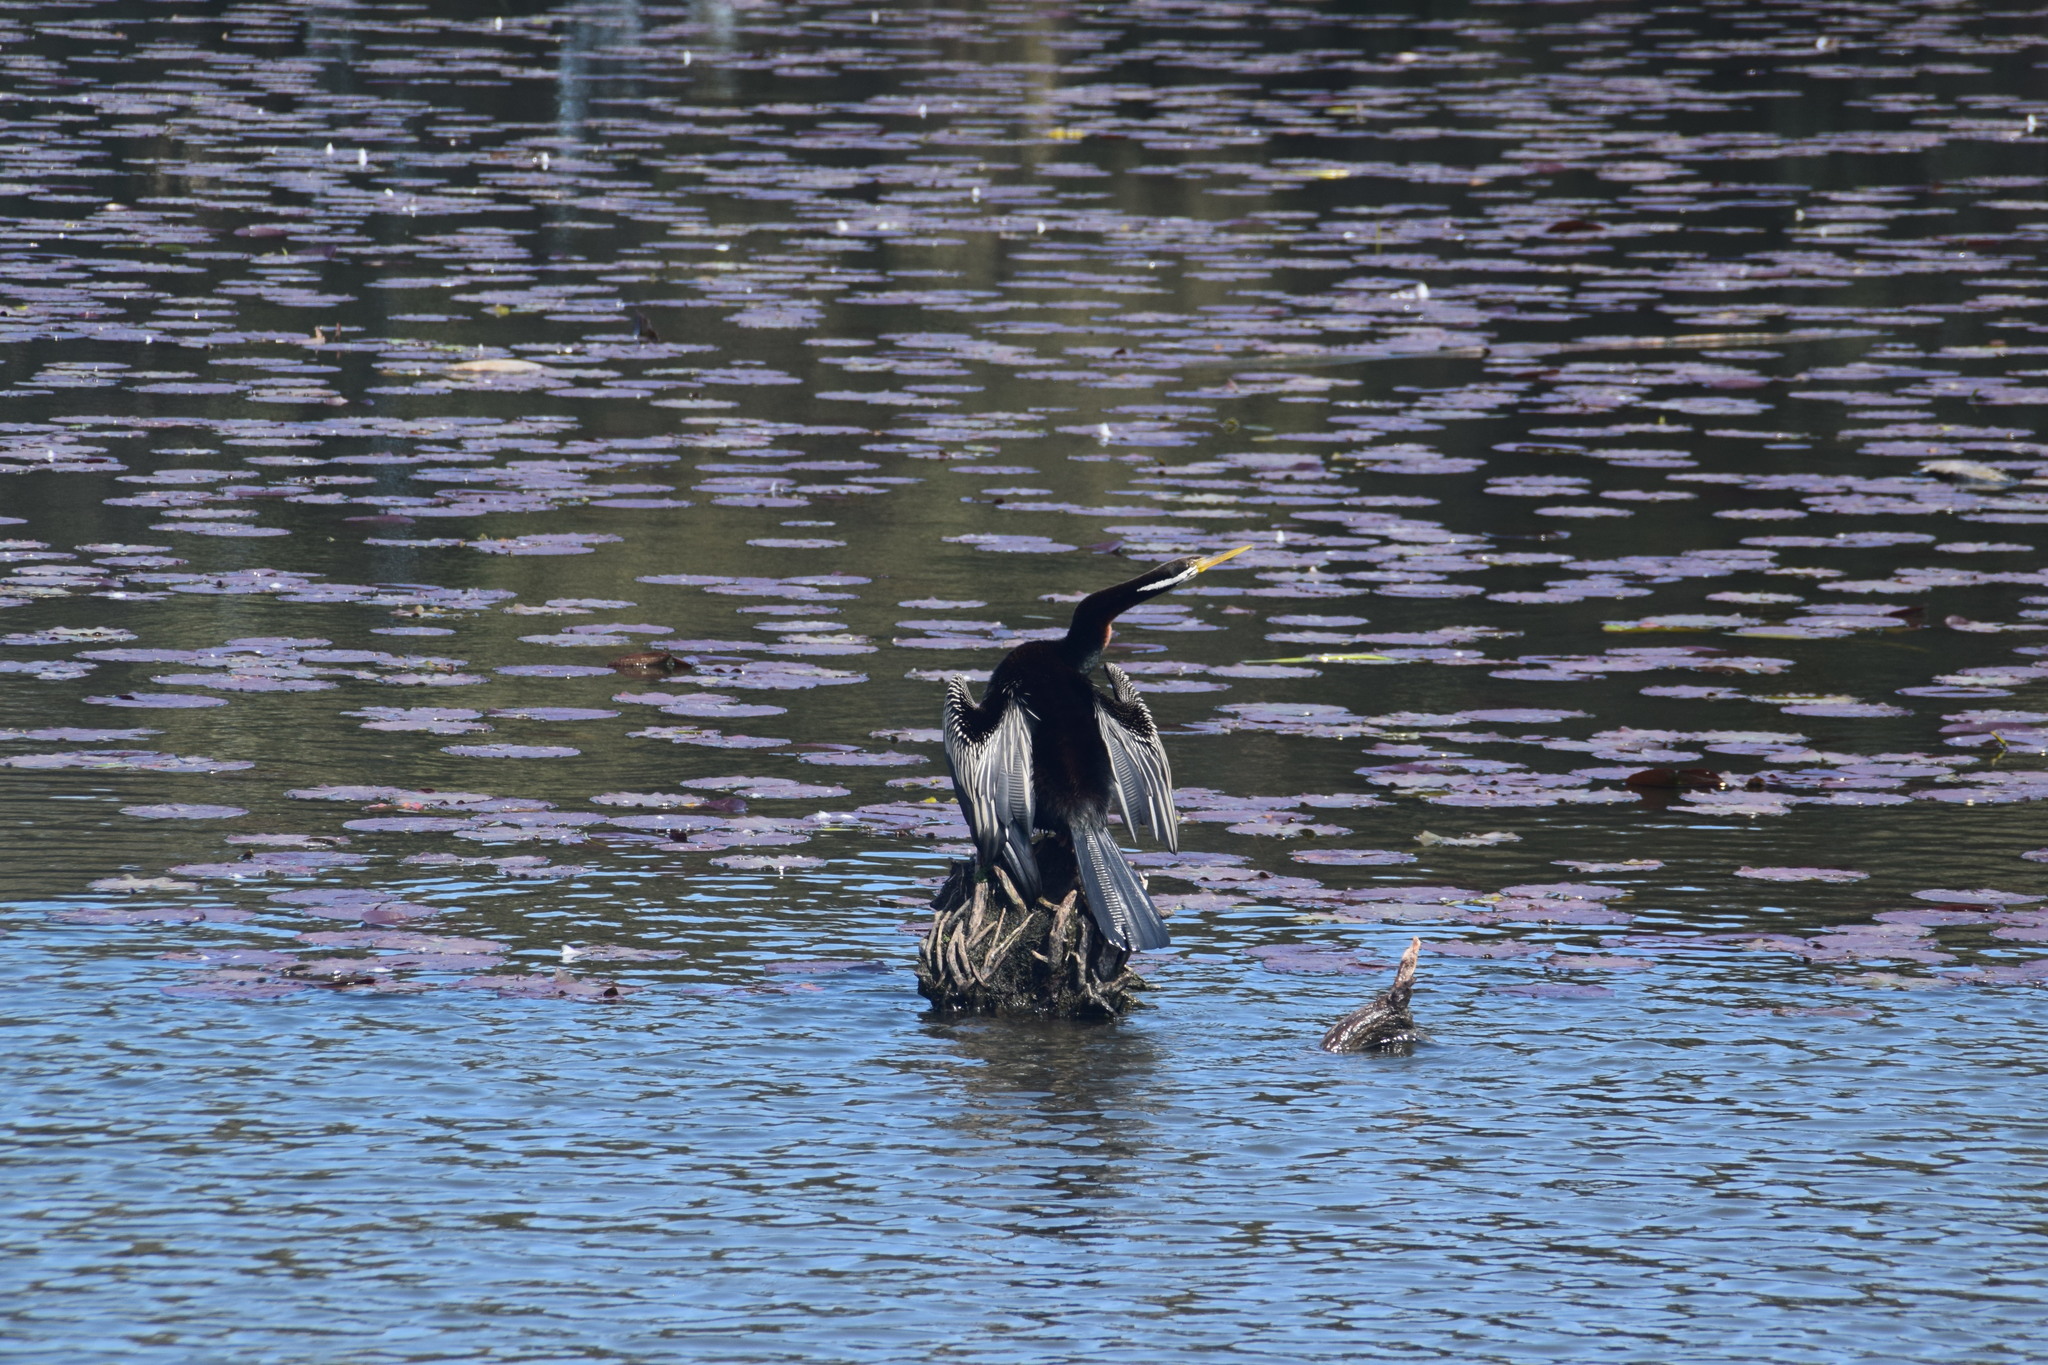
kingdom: Animalia
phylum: Chordata
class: Aves
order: Suliformes
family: Anhingidae
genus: Anhinga
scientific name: Anhinga novaehollandiae
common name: Australasian darter
